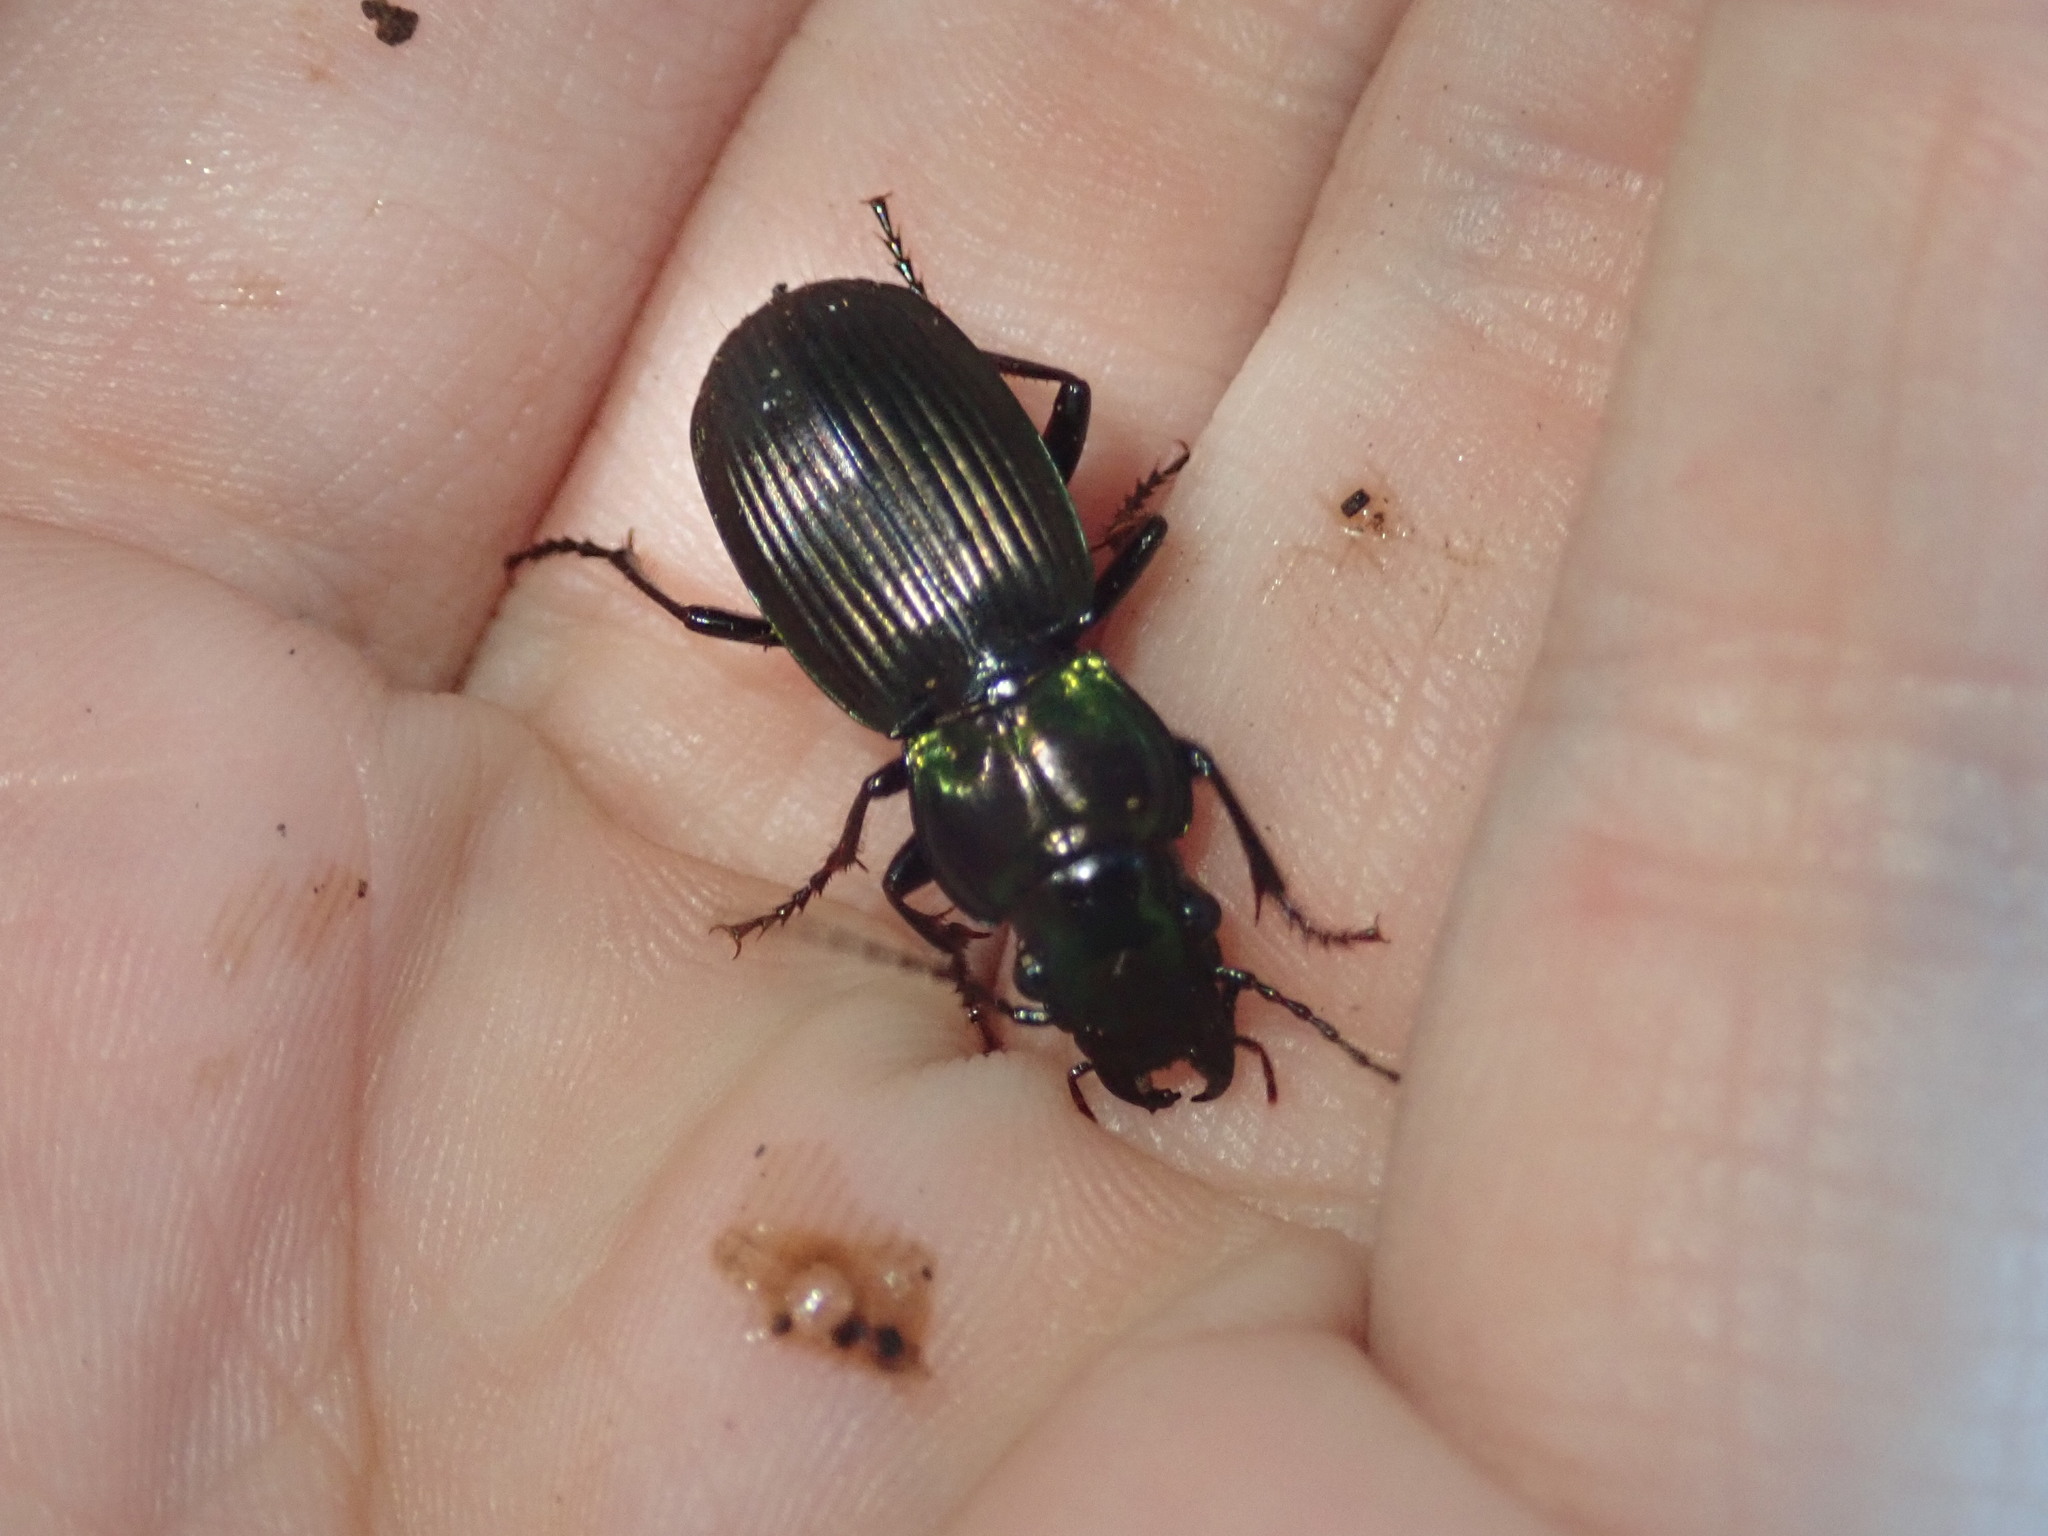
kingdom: Animalia
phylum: Arthropoda
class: Insecta
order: Coleoptera
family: Carabidae
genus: Megadromus
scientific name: Megadromus capito
